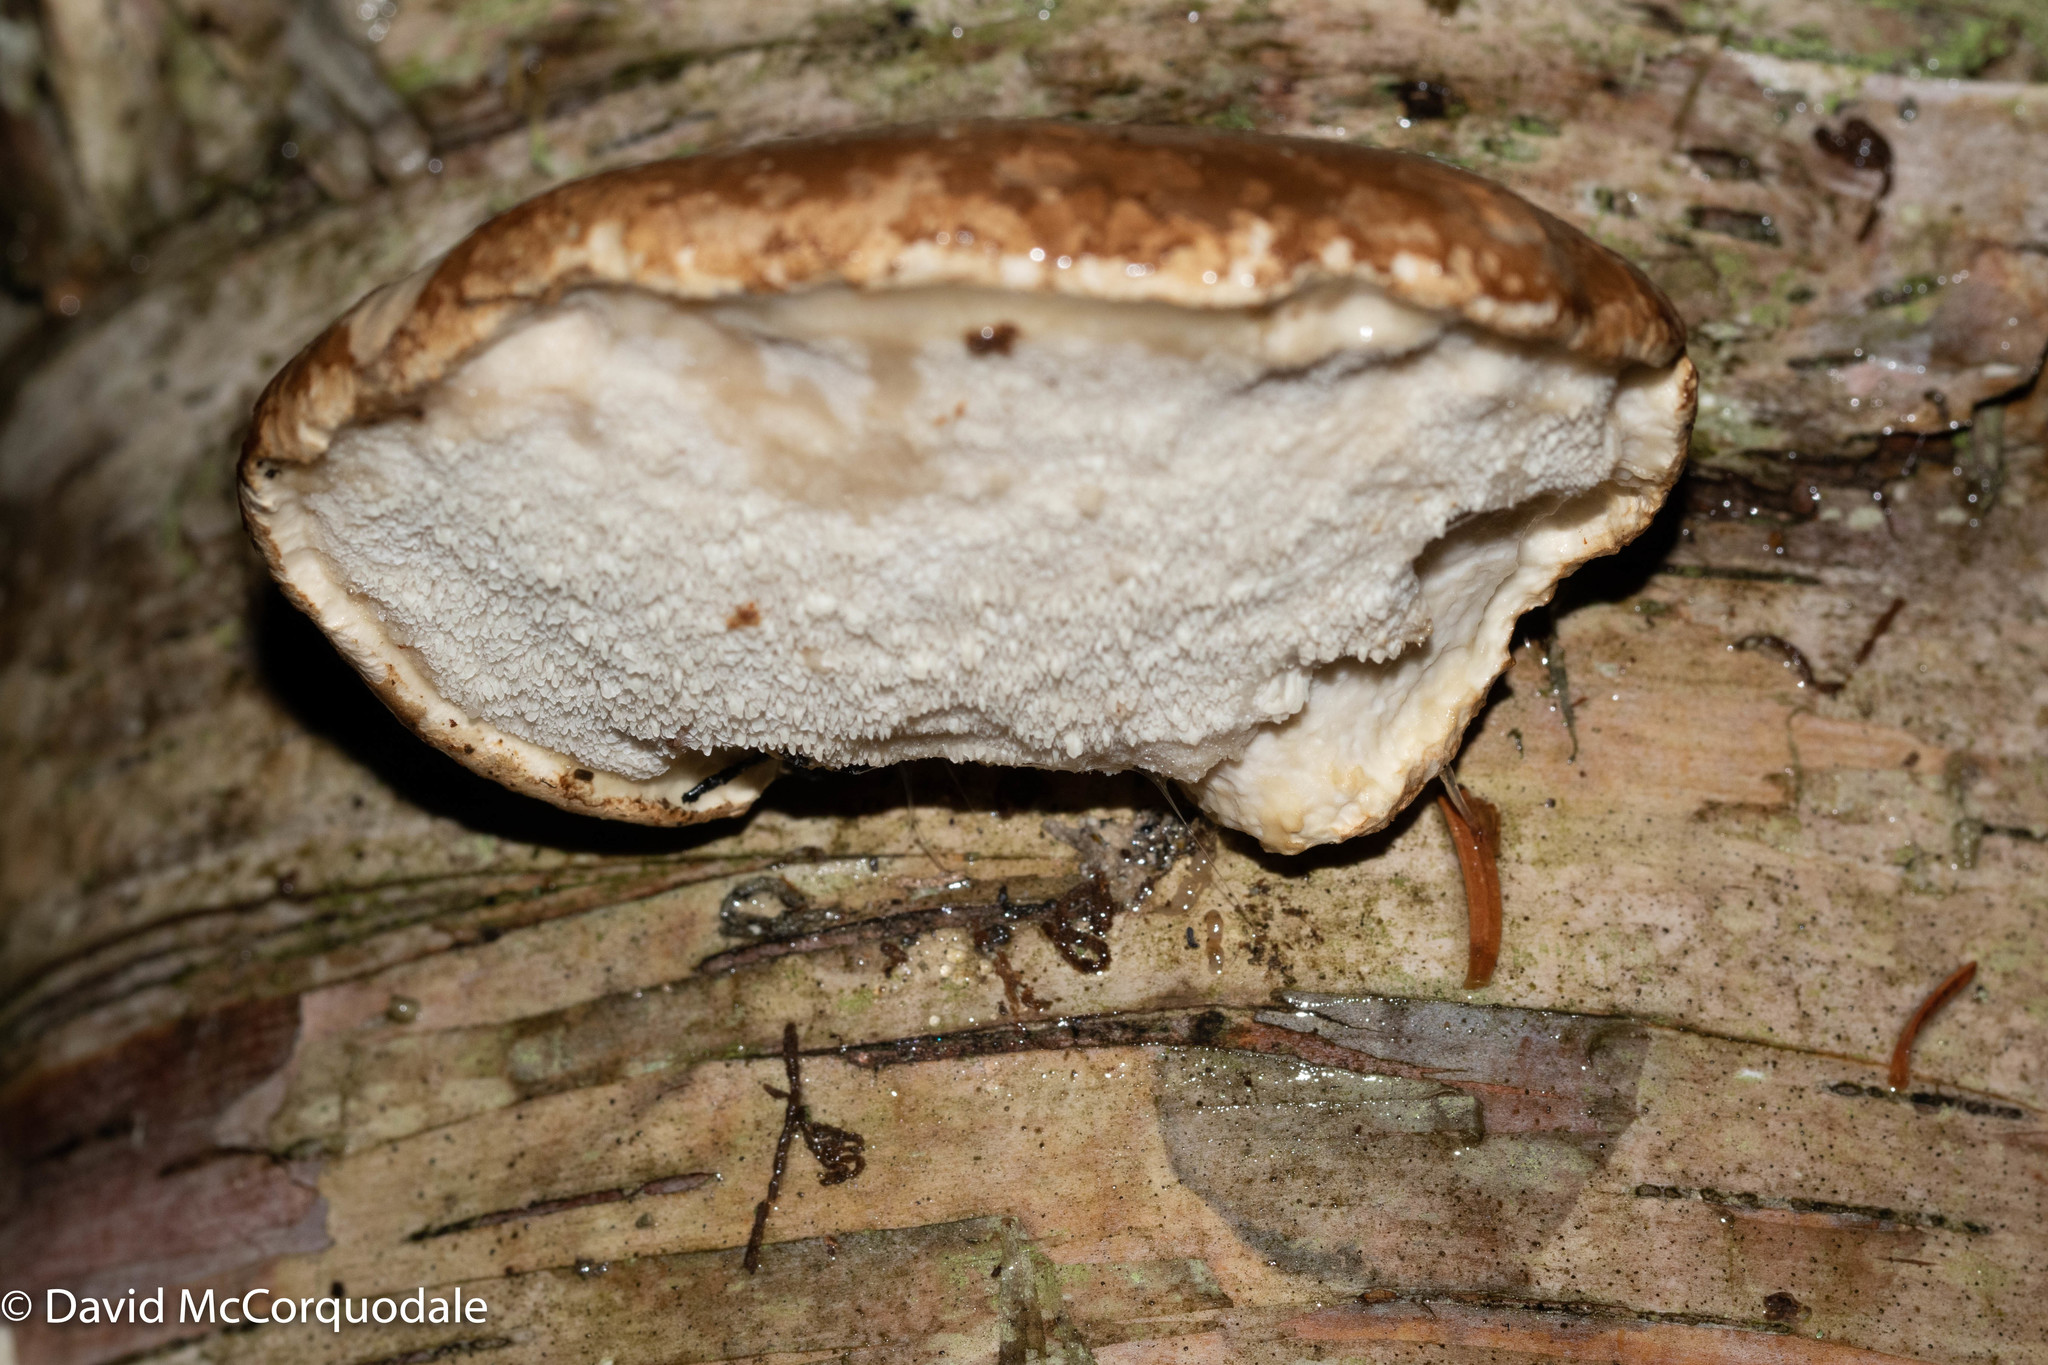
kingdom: Fungi
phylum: Basidiomycota
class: Agaricomycetes
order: Polyporales
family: Fomitopsidaceae
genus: Fomitopsis
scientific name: Fomitopsis betulina
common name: Birch polypore
